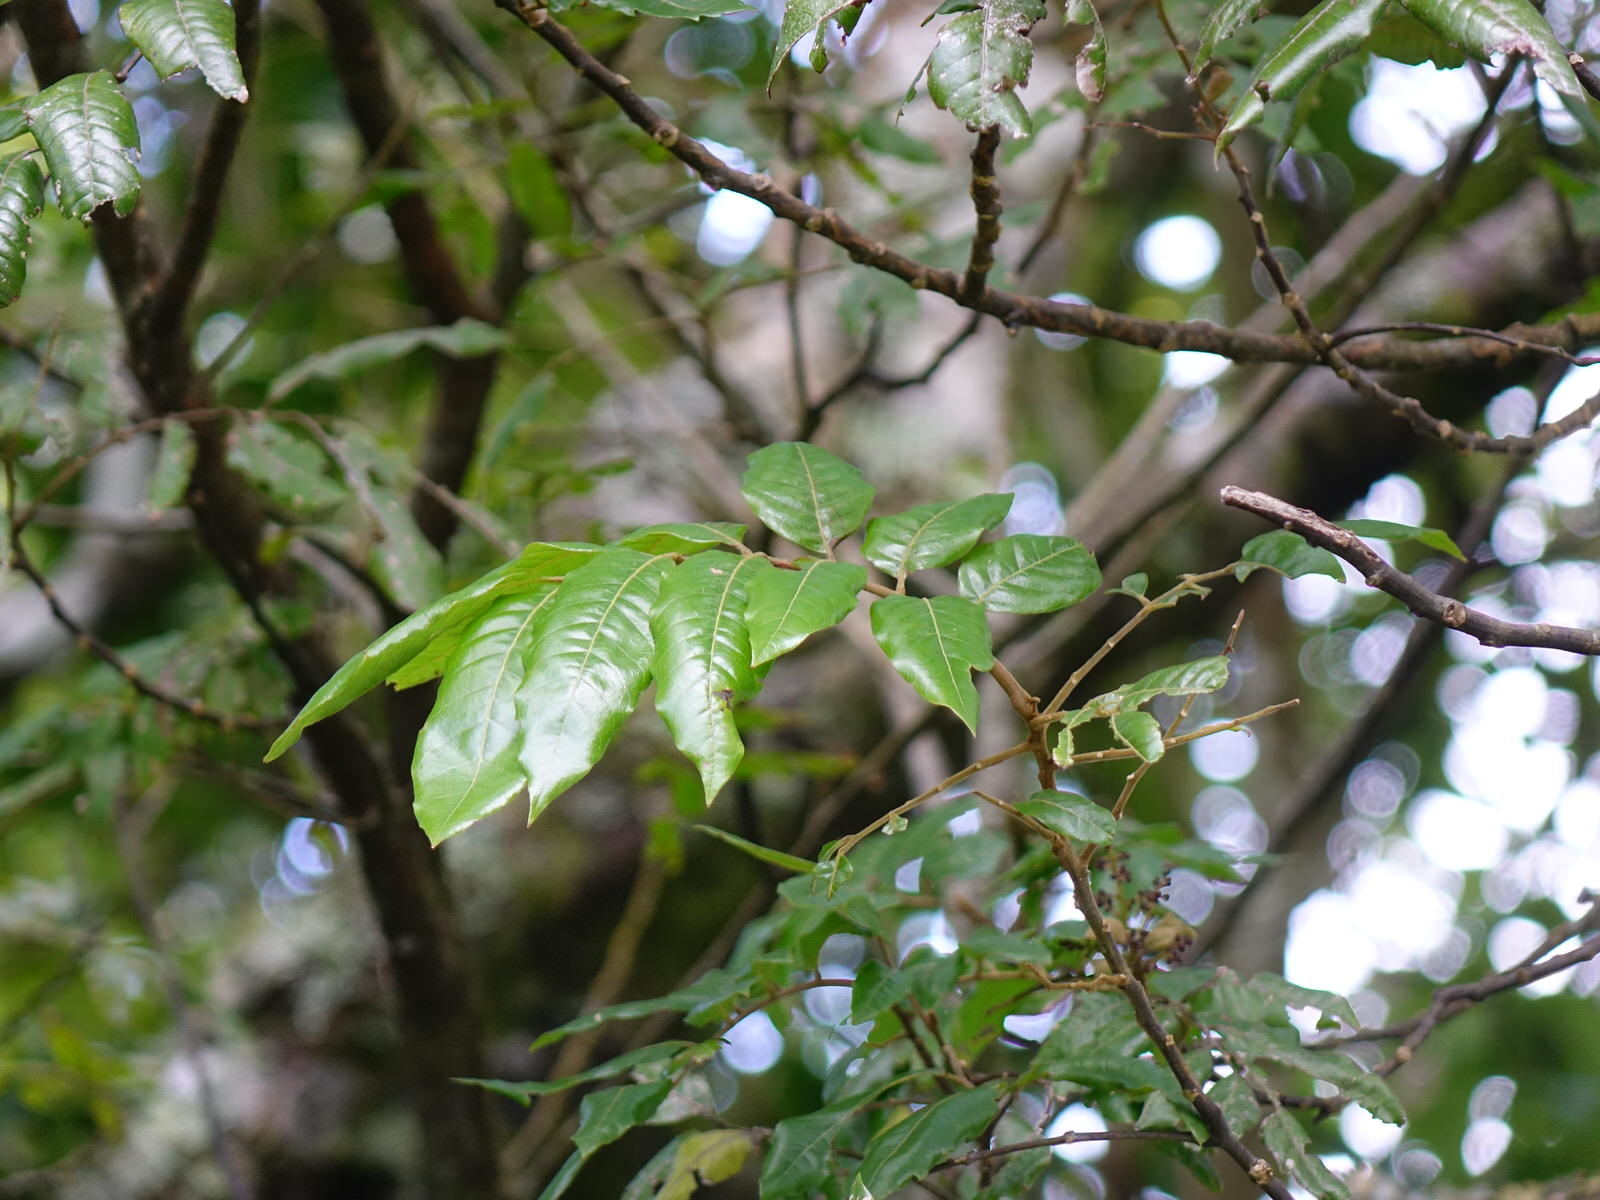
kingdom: Plantae
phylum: Tracheophyta
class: Magnoliopsida
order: Sapindales
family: Sapindaceae
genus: Alectryon
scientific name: Alectryon excelsus
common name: Three kings titoki
